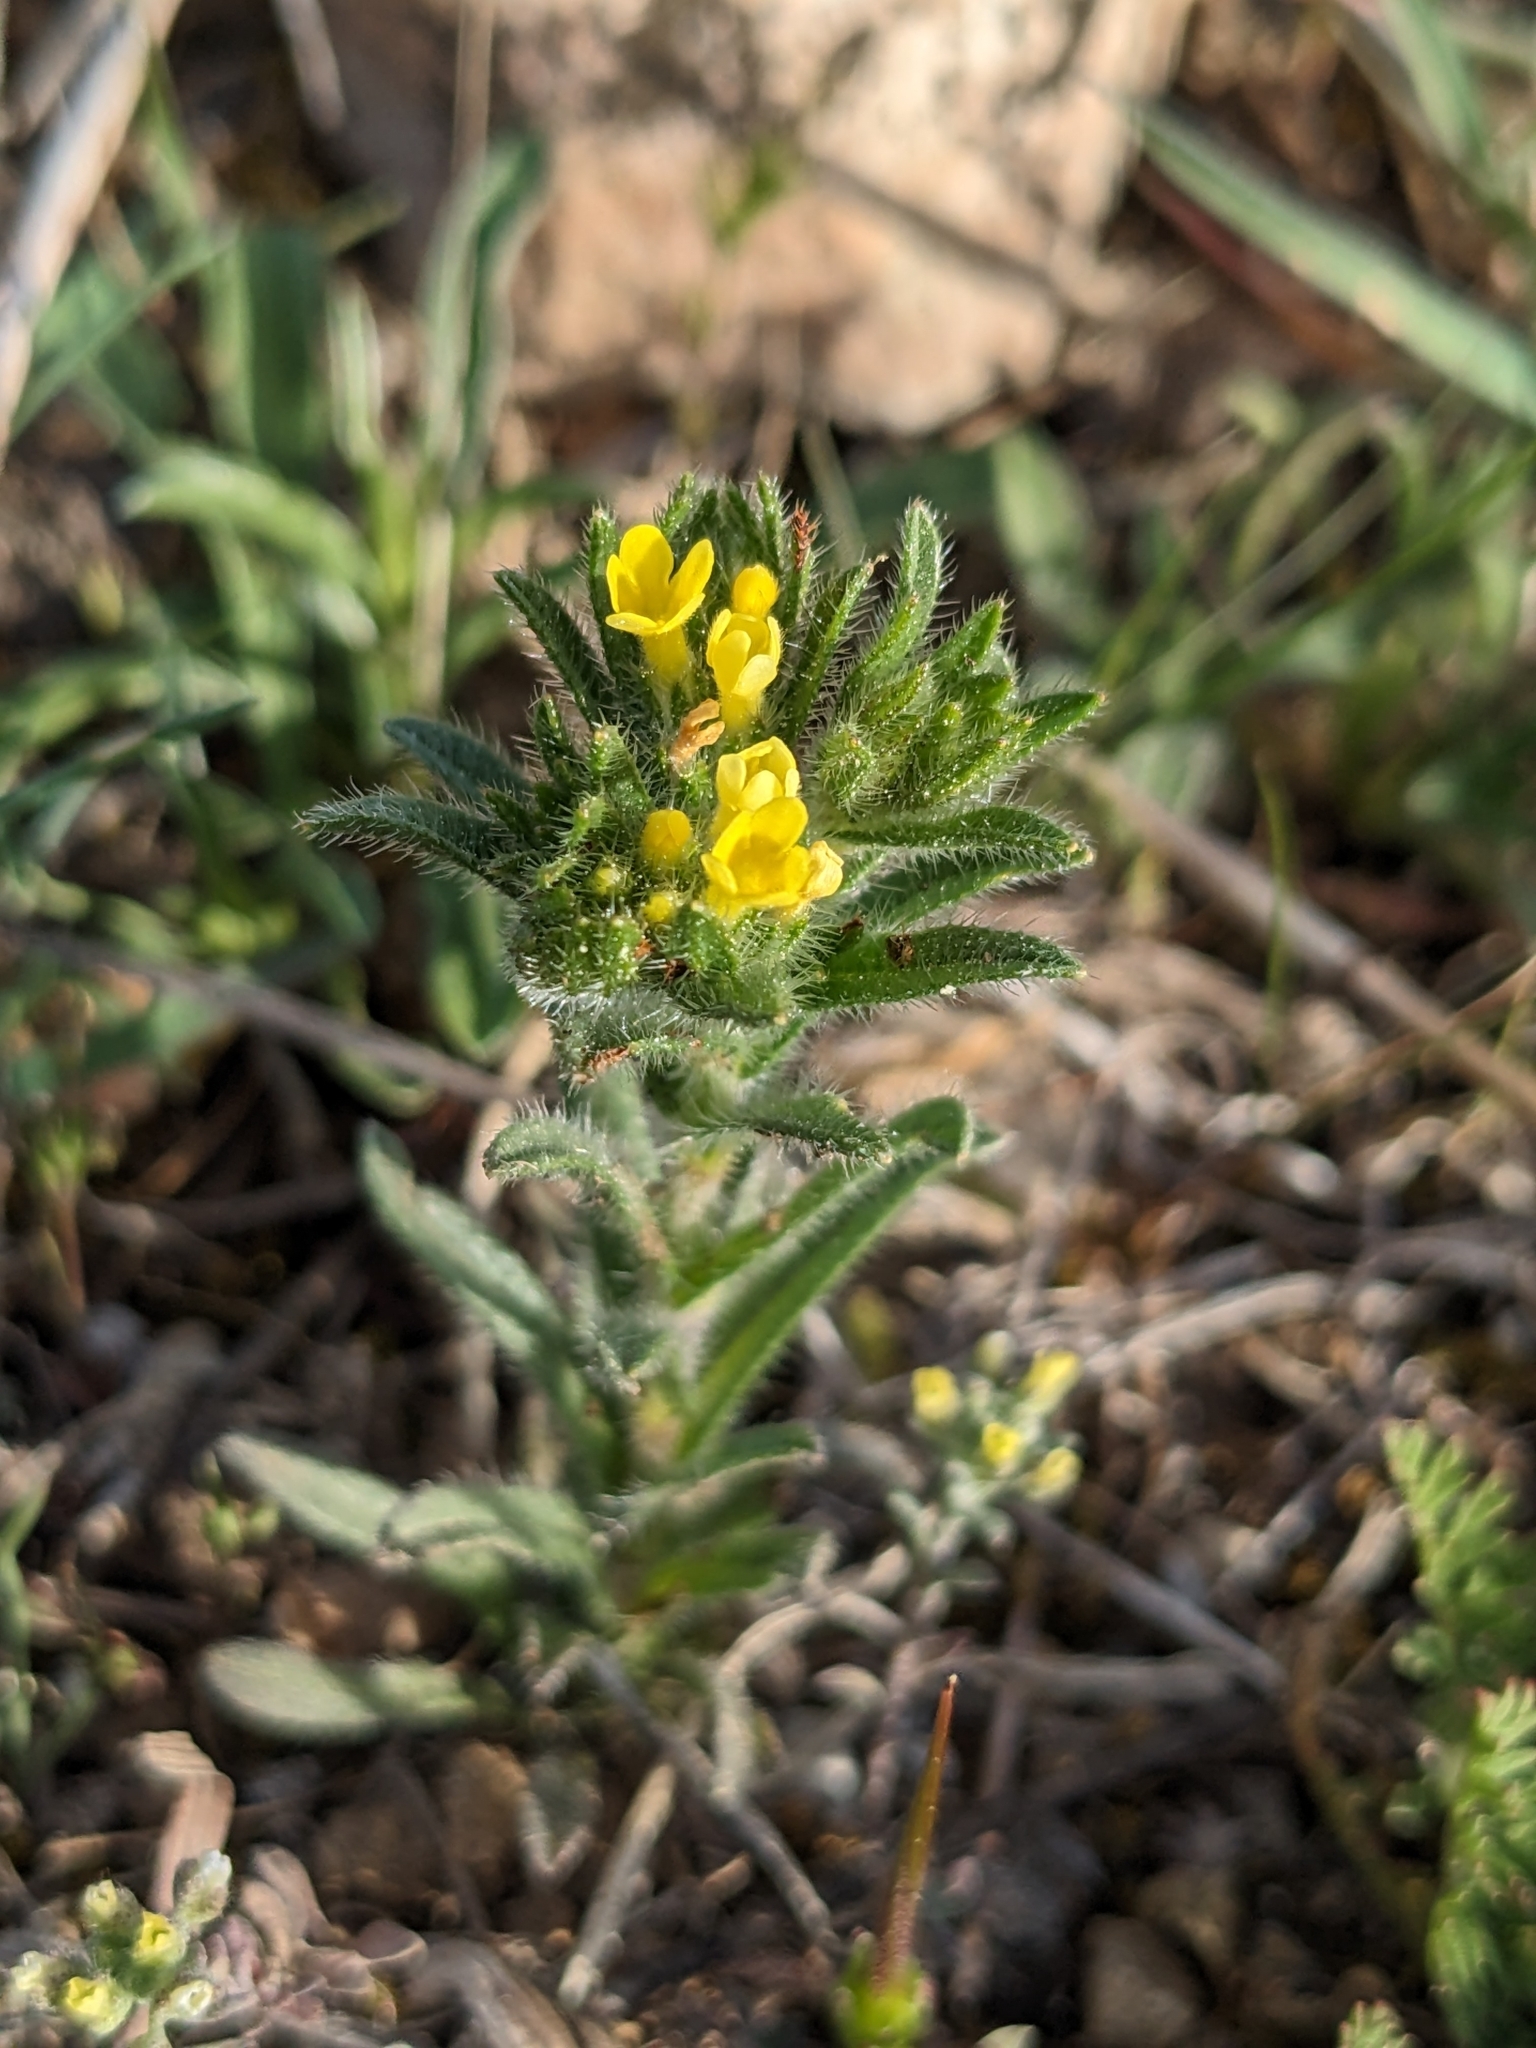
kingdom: Plantae
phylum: Tracheophyta
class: Magnoliopsida
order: Boraginales
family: Boraginaceae
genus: Neatostema
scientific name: Neatostema apulum
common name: Hairy sheepweed
